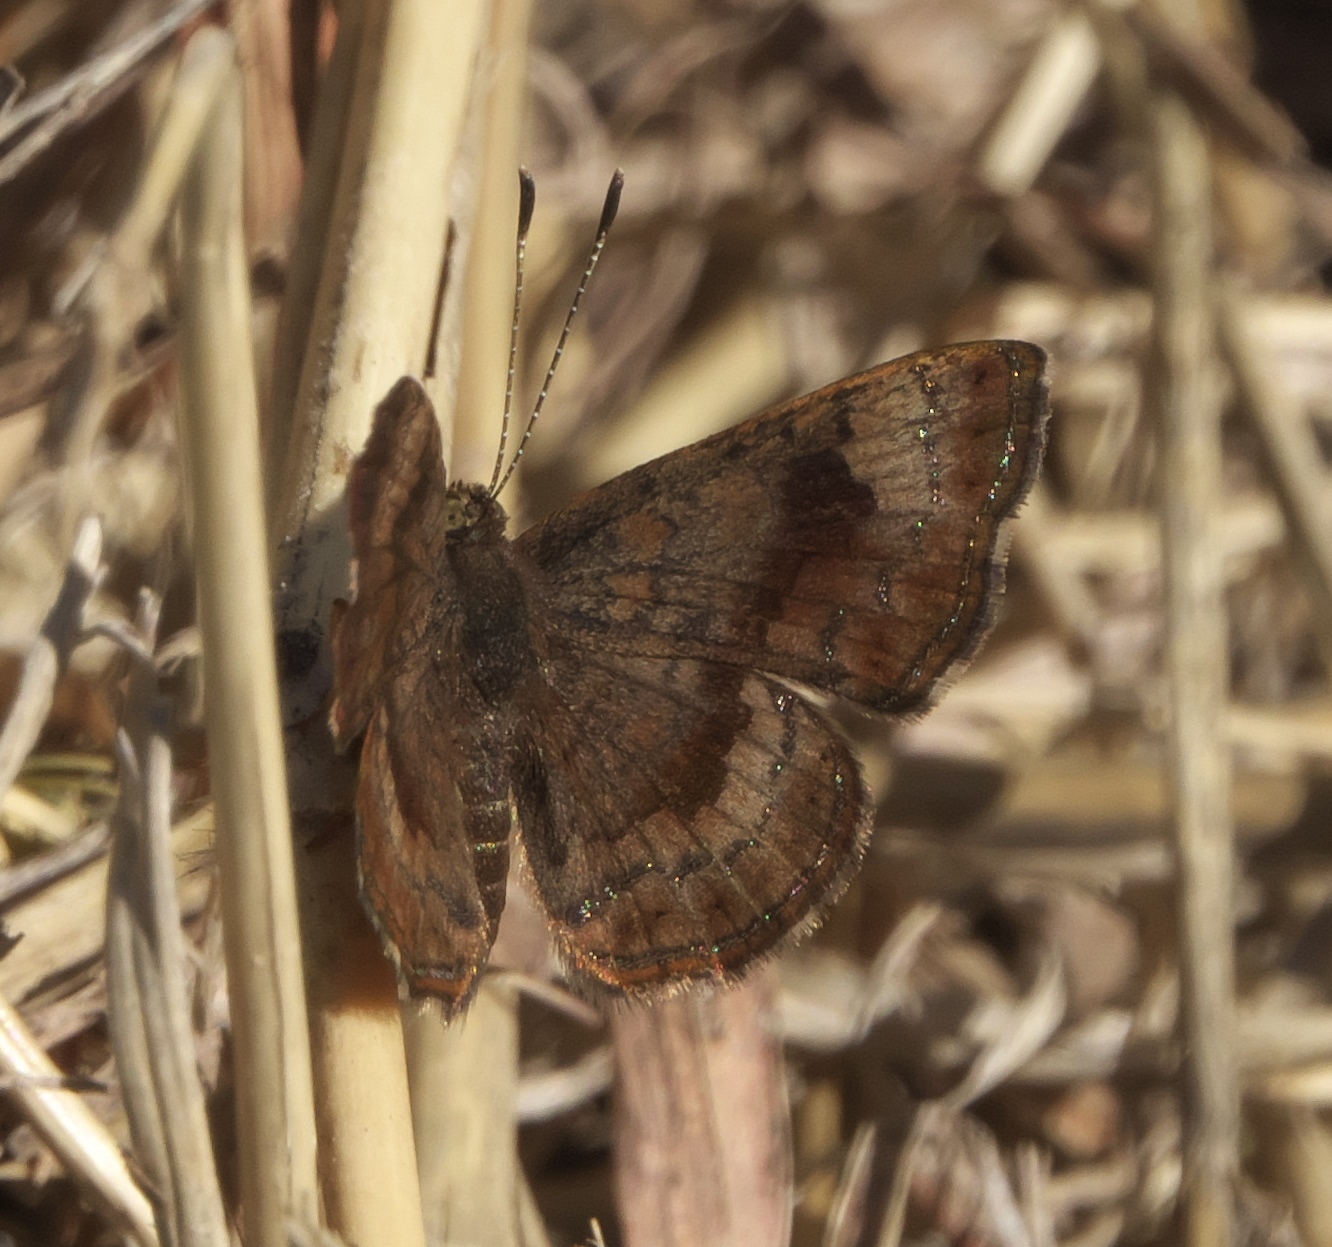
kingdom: Animalia
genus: Calephelis
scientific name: Calephelis nemesis
